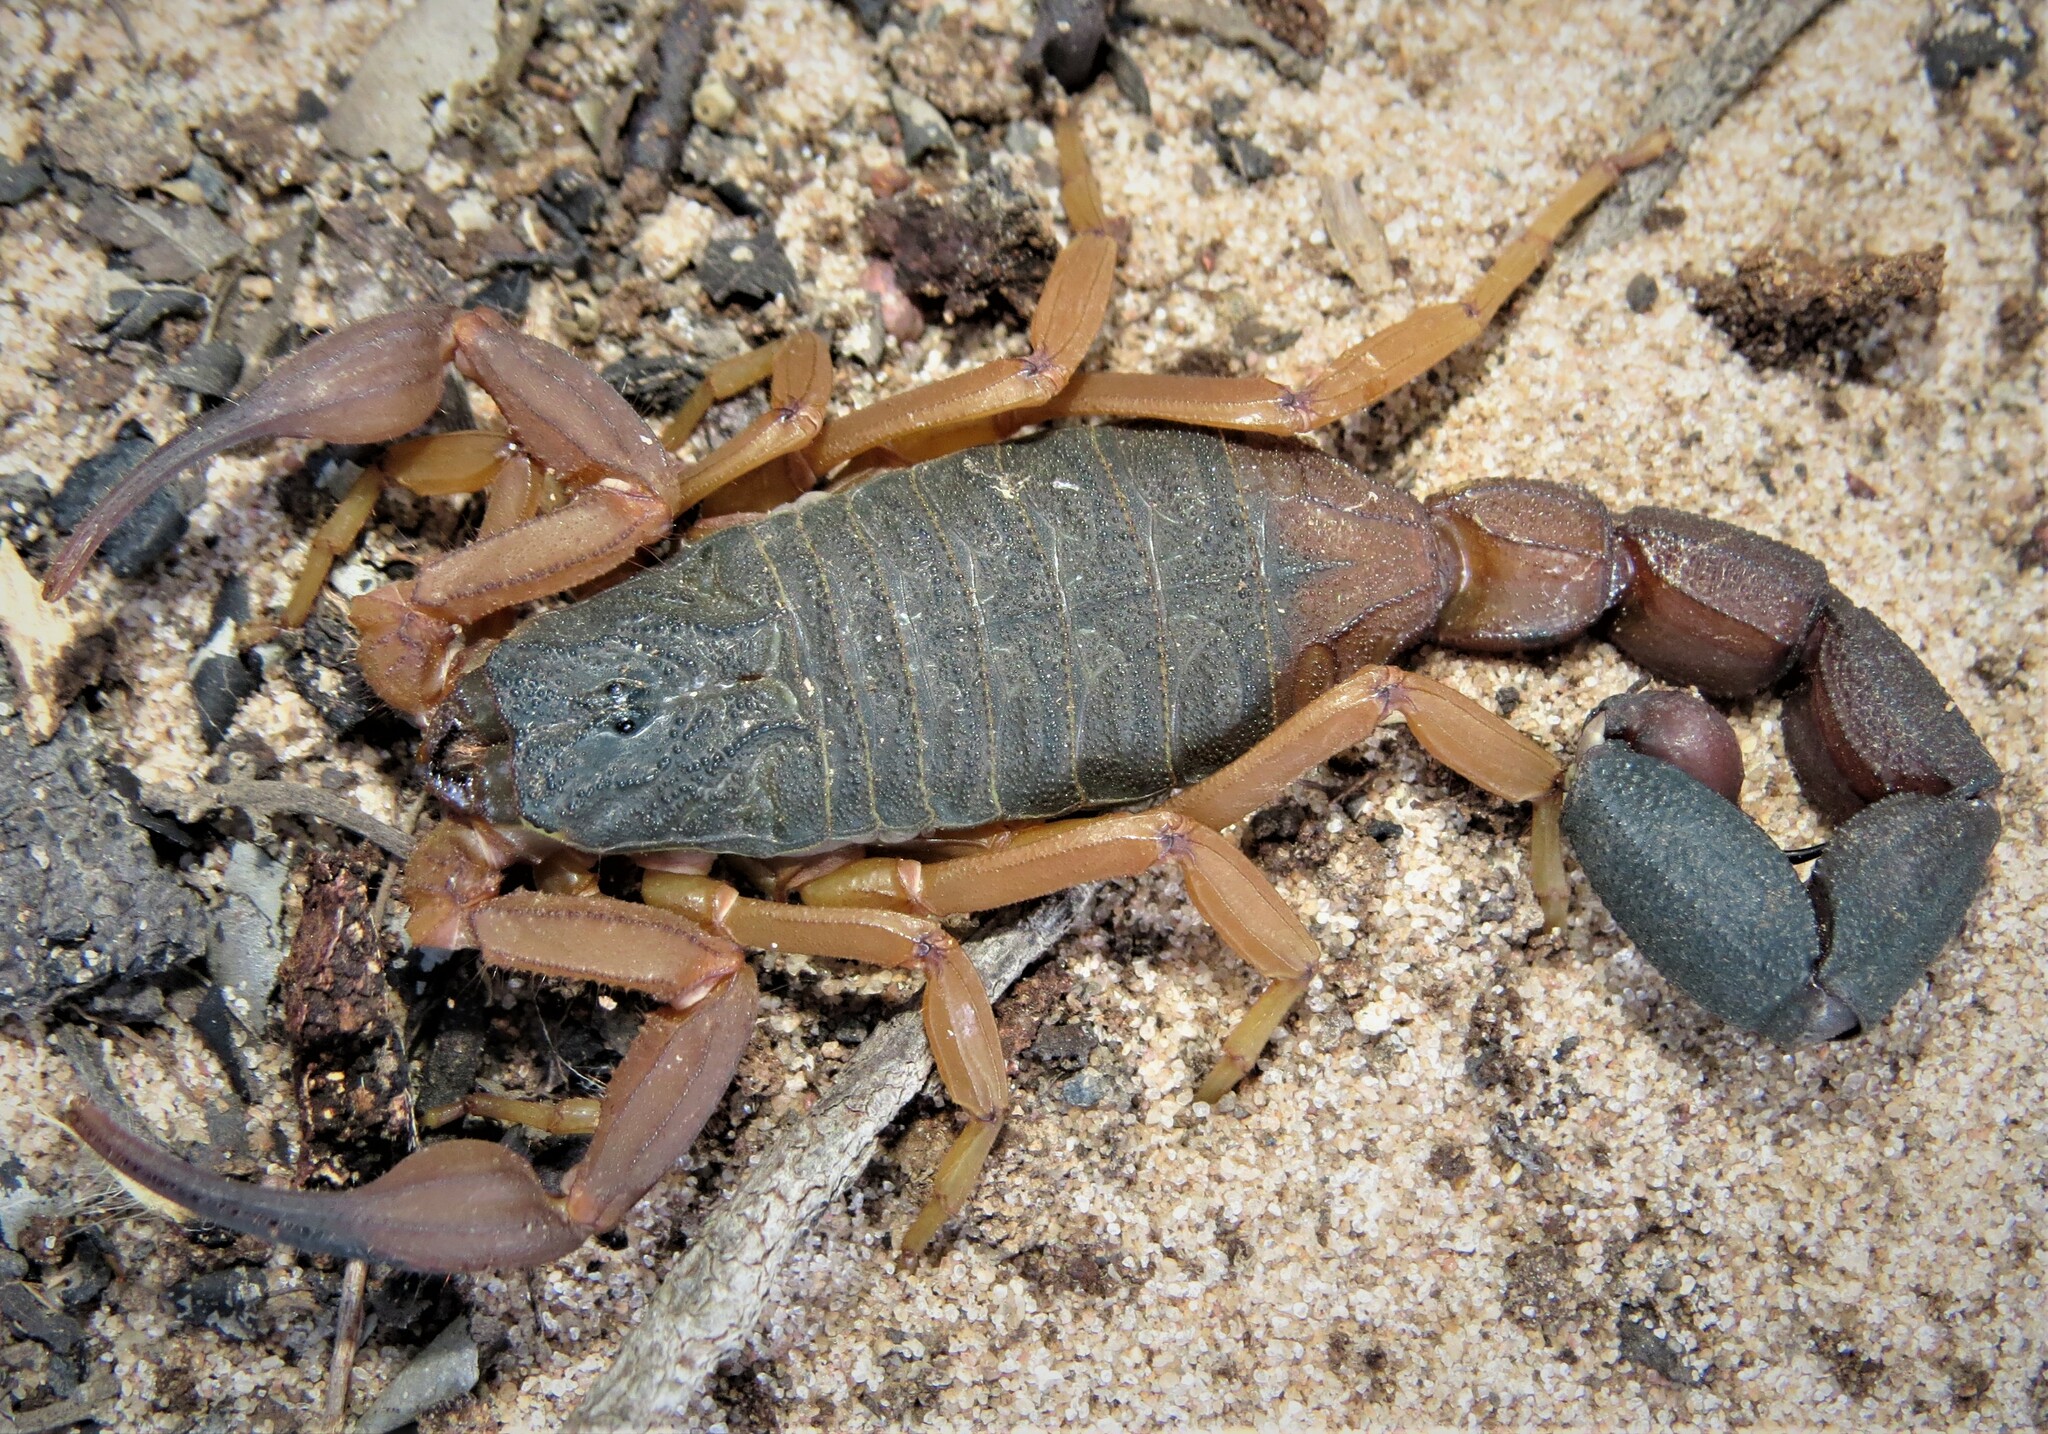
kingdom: Animalia
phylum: Arthropoda
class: Arachnida
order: Scorpiones
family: Buthidae
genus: Jaguajir
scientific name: Jaguajir agamemnon
